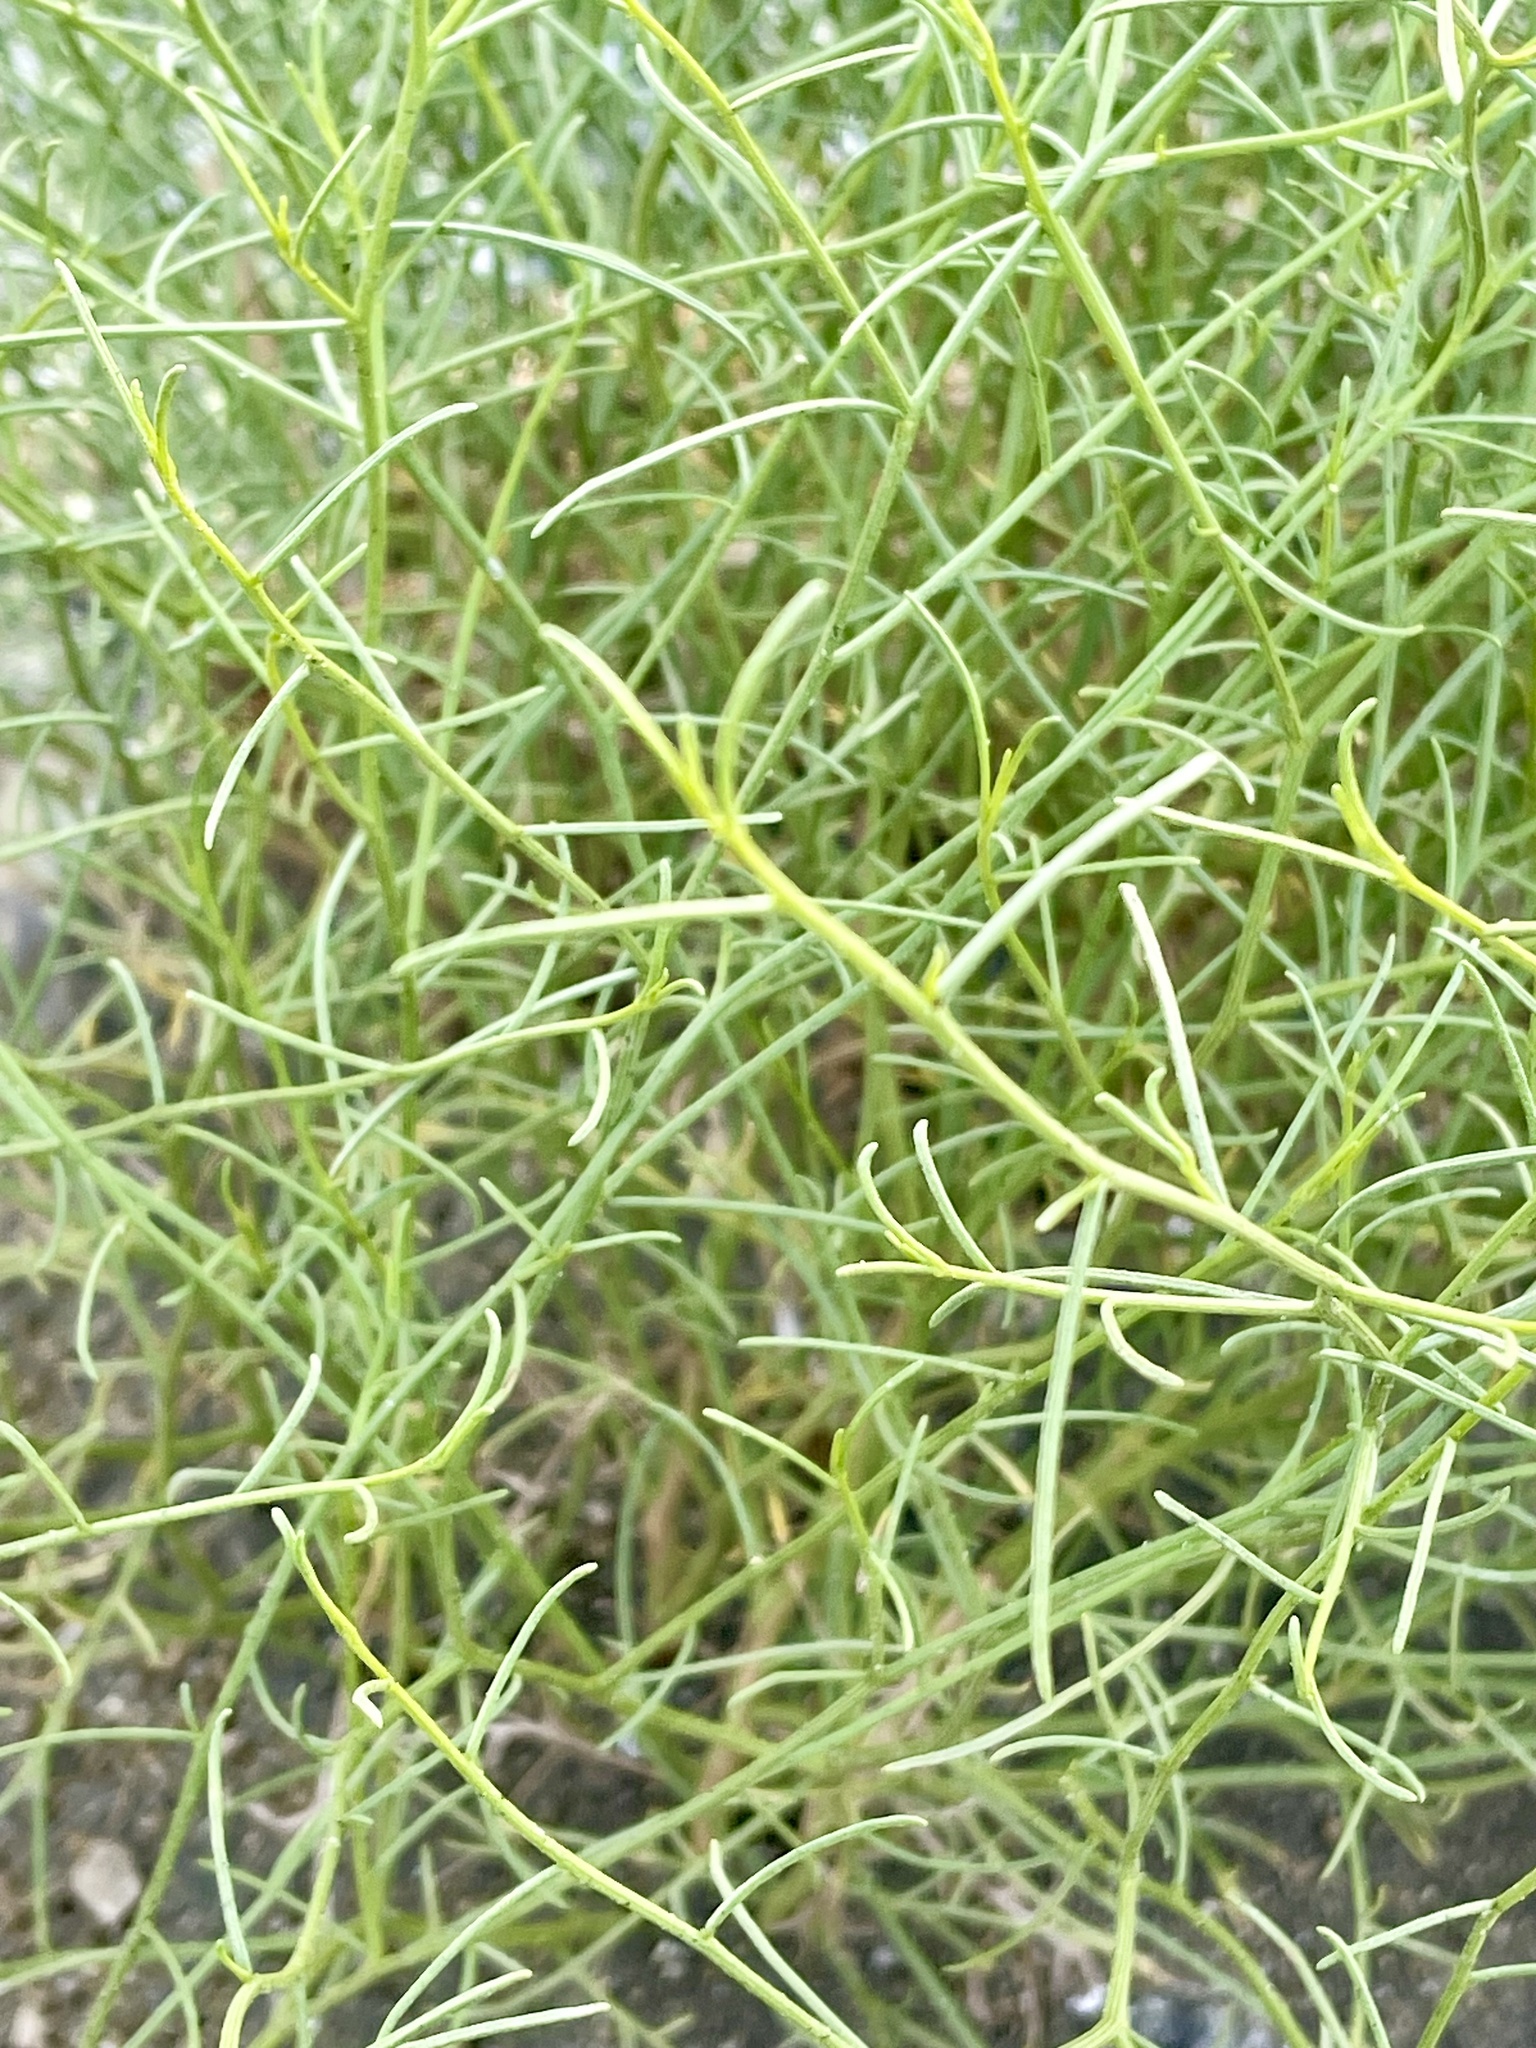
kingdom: Plantae
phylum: Tracheophyta
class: Magnoliopsida
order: Asterales
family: Asteraceae
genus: Ambrosia
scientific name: Ambrosia salsola
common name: Burrobrush
